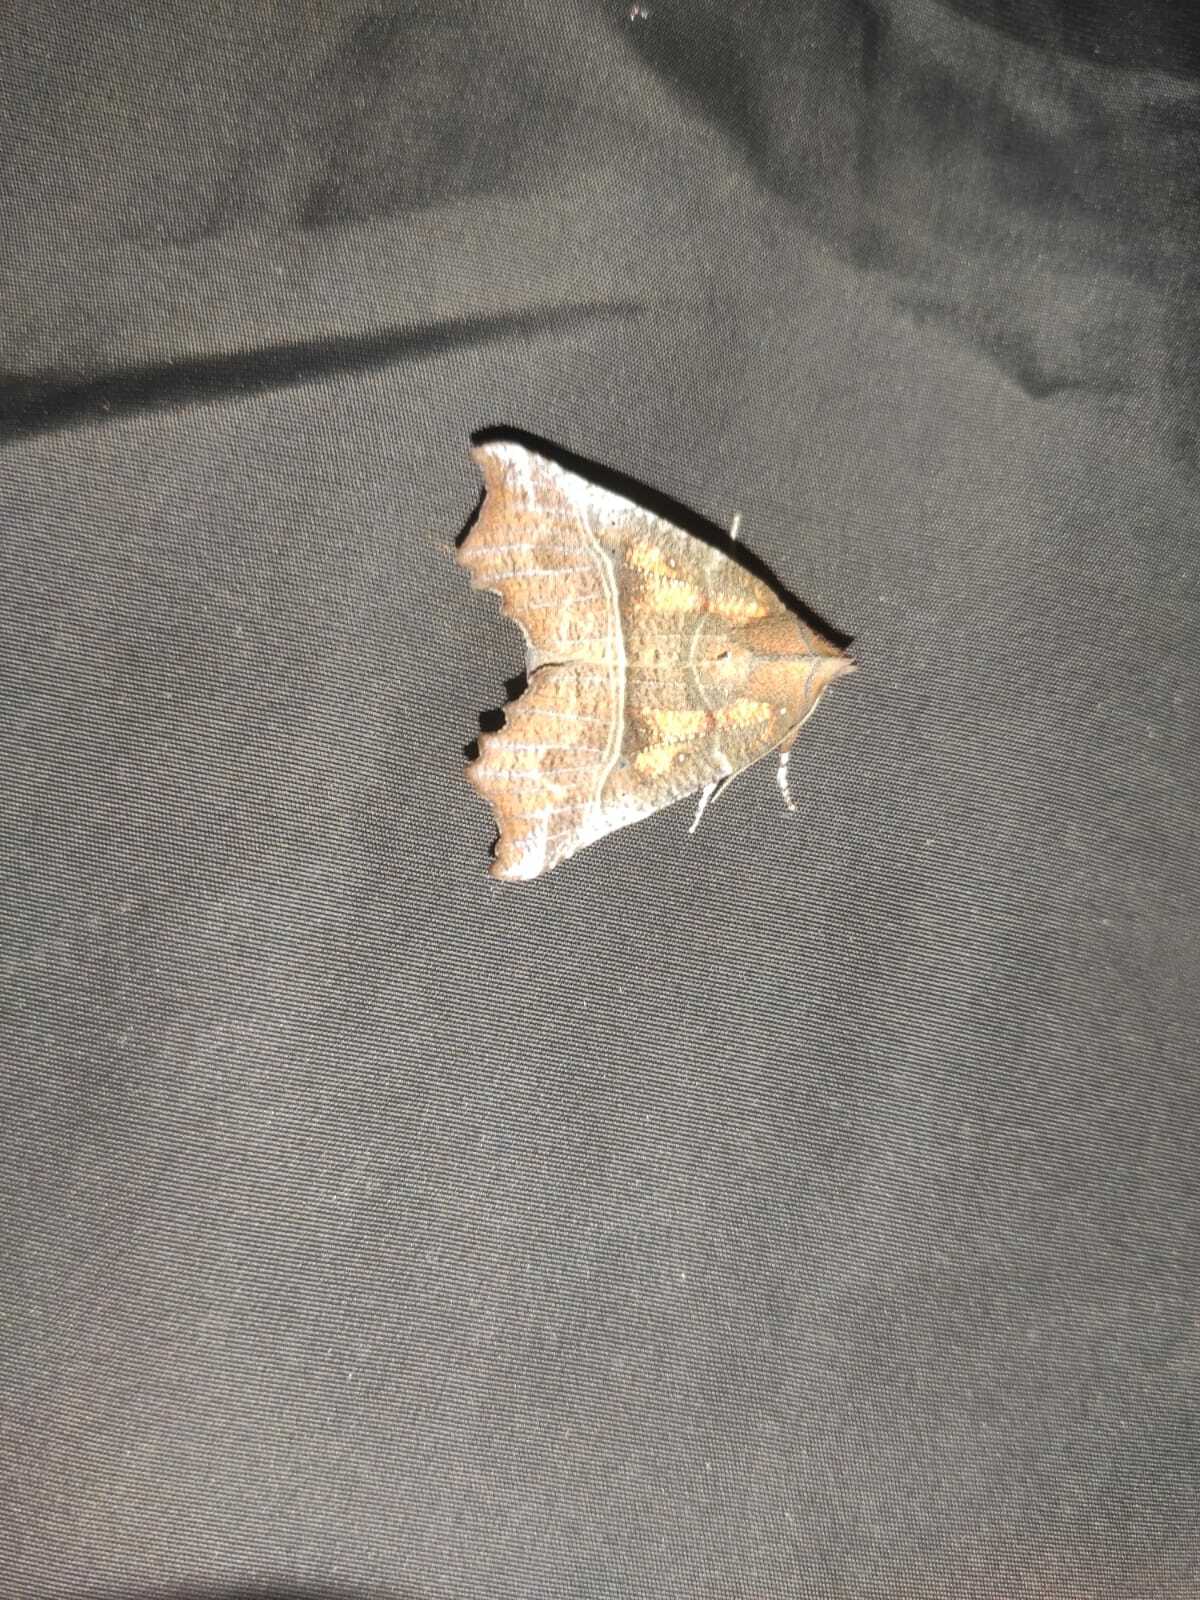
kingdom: Animalia
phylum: Arthropoda
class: Insecta
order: Lepidoptera
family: Erebidae
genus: Scoliopteryx
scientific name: Scoliopteryx libatrix
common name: Herald
